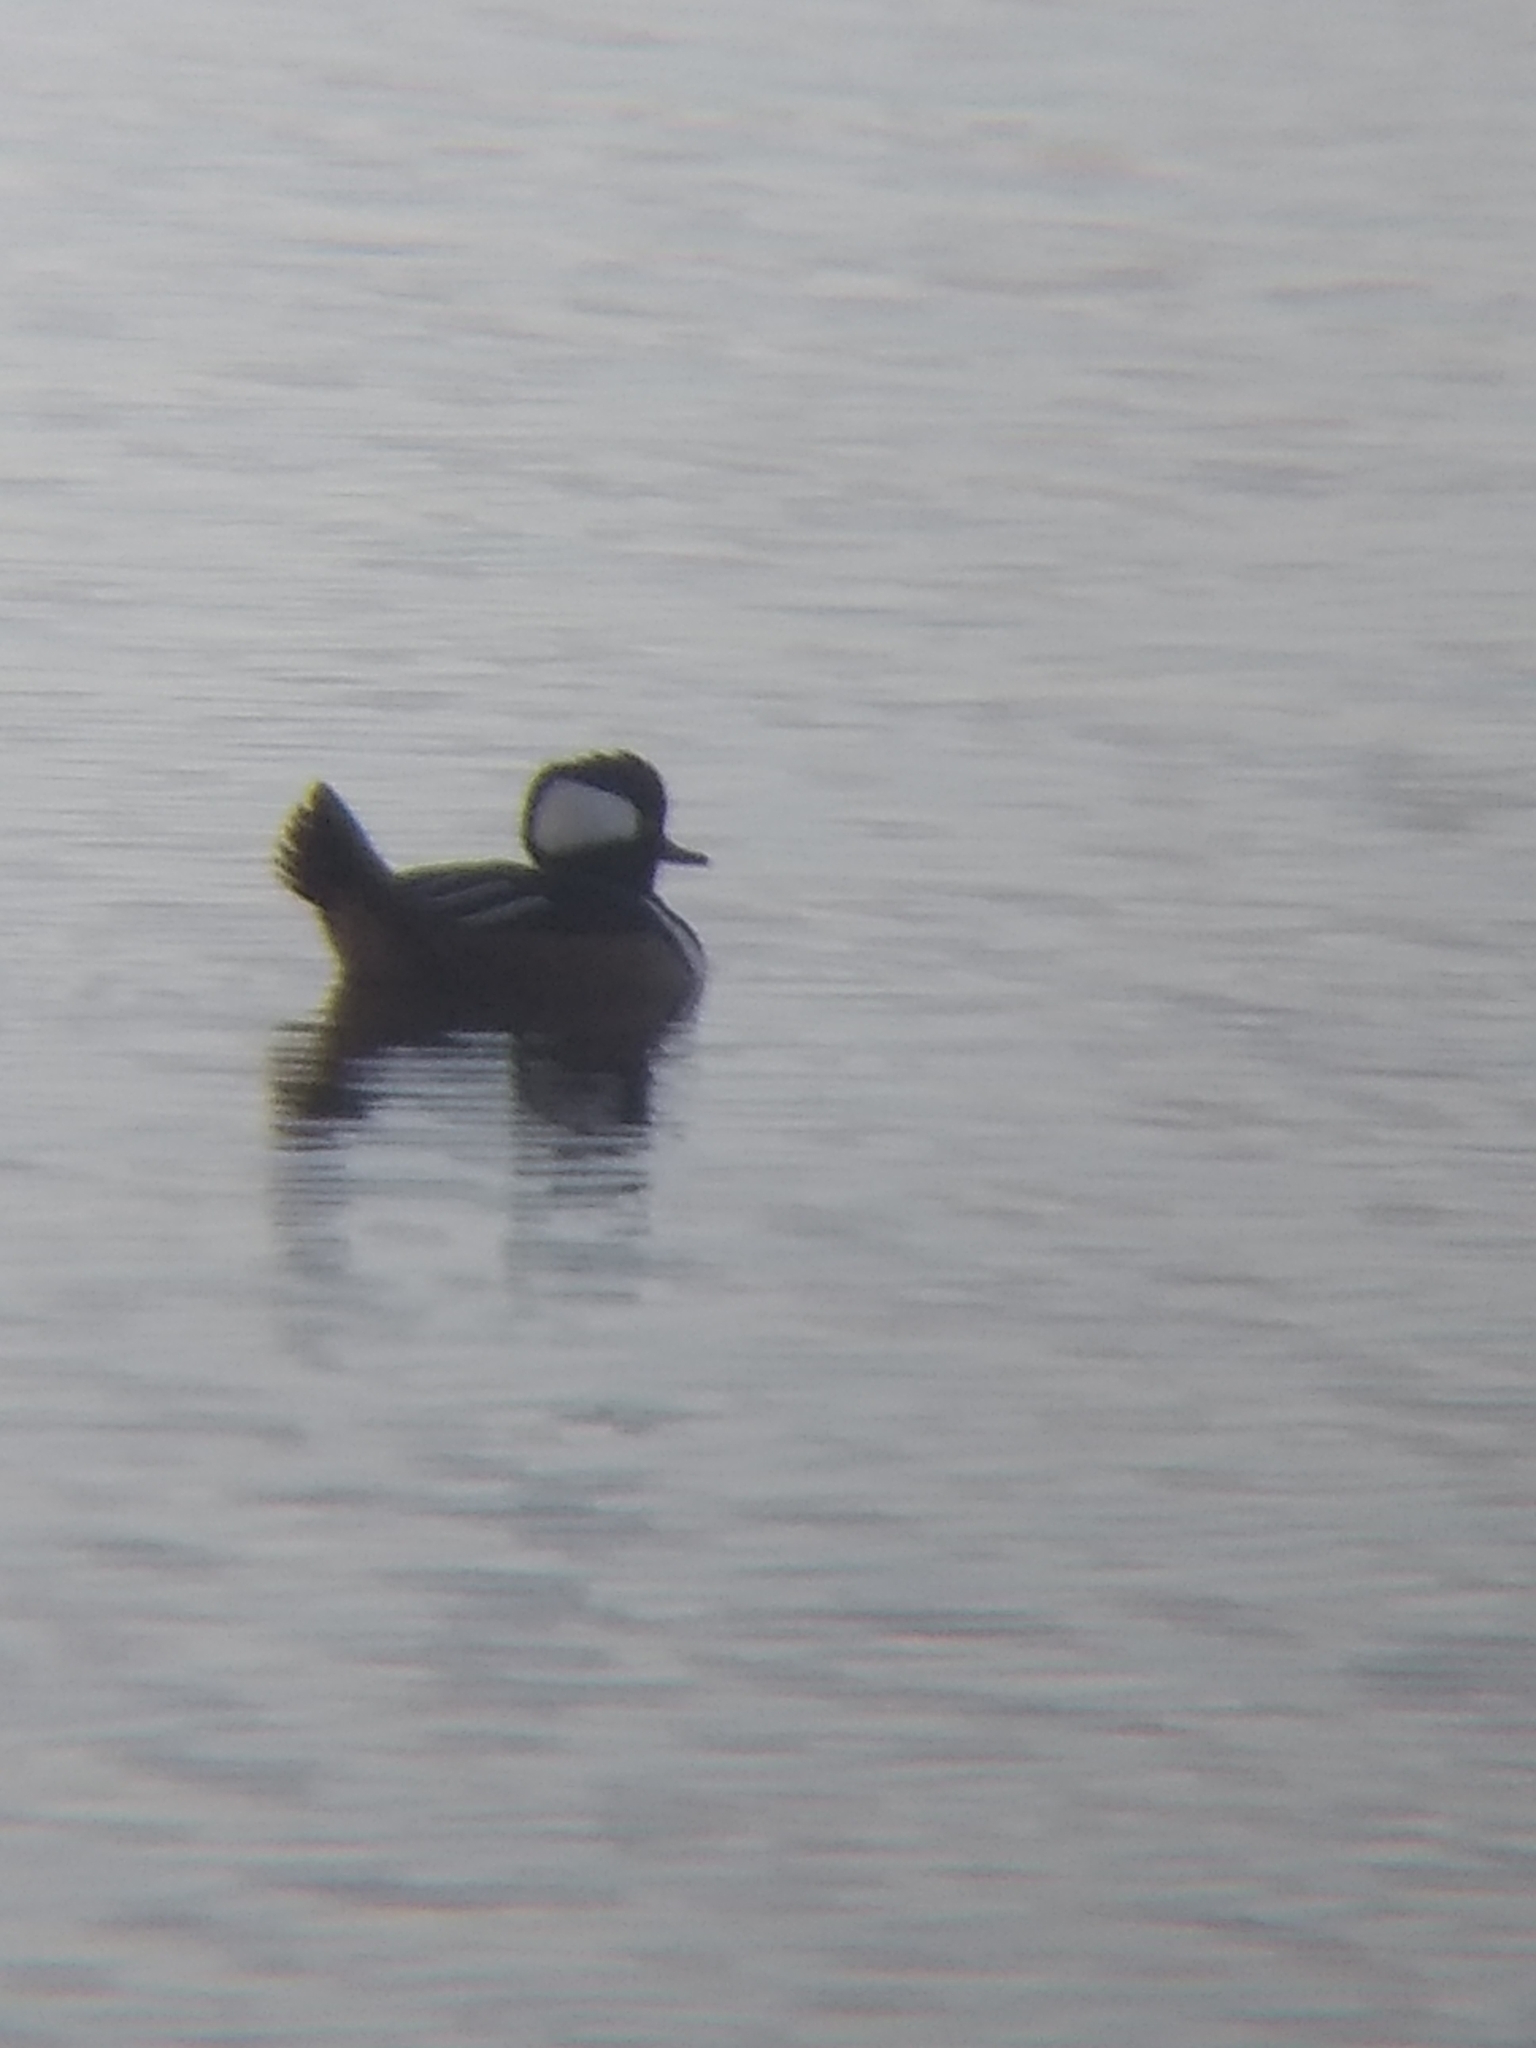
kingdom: Animalia
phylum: Chordata
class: Aves
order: Anseriformes
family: Anatidae
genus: Lophodytes
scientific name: Lophodytes cucullatus
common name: Hooded merganser
